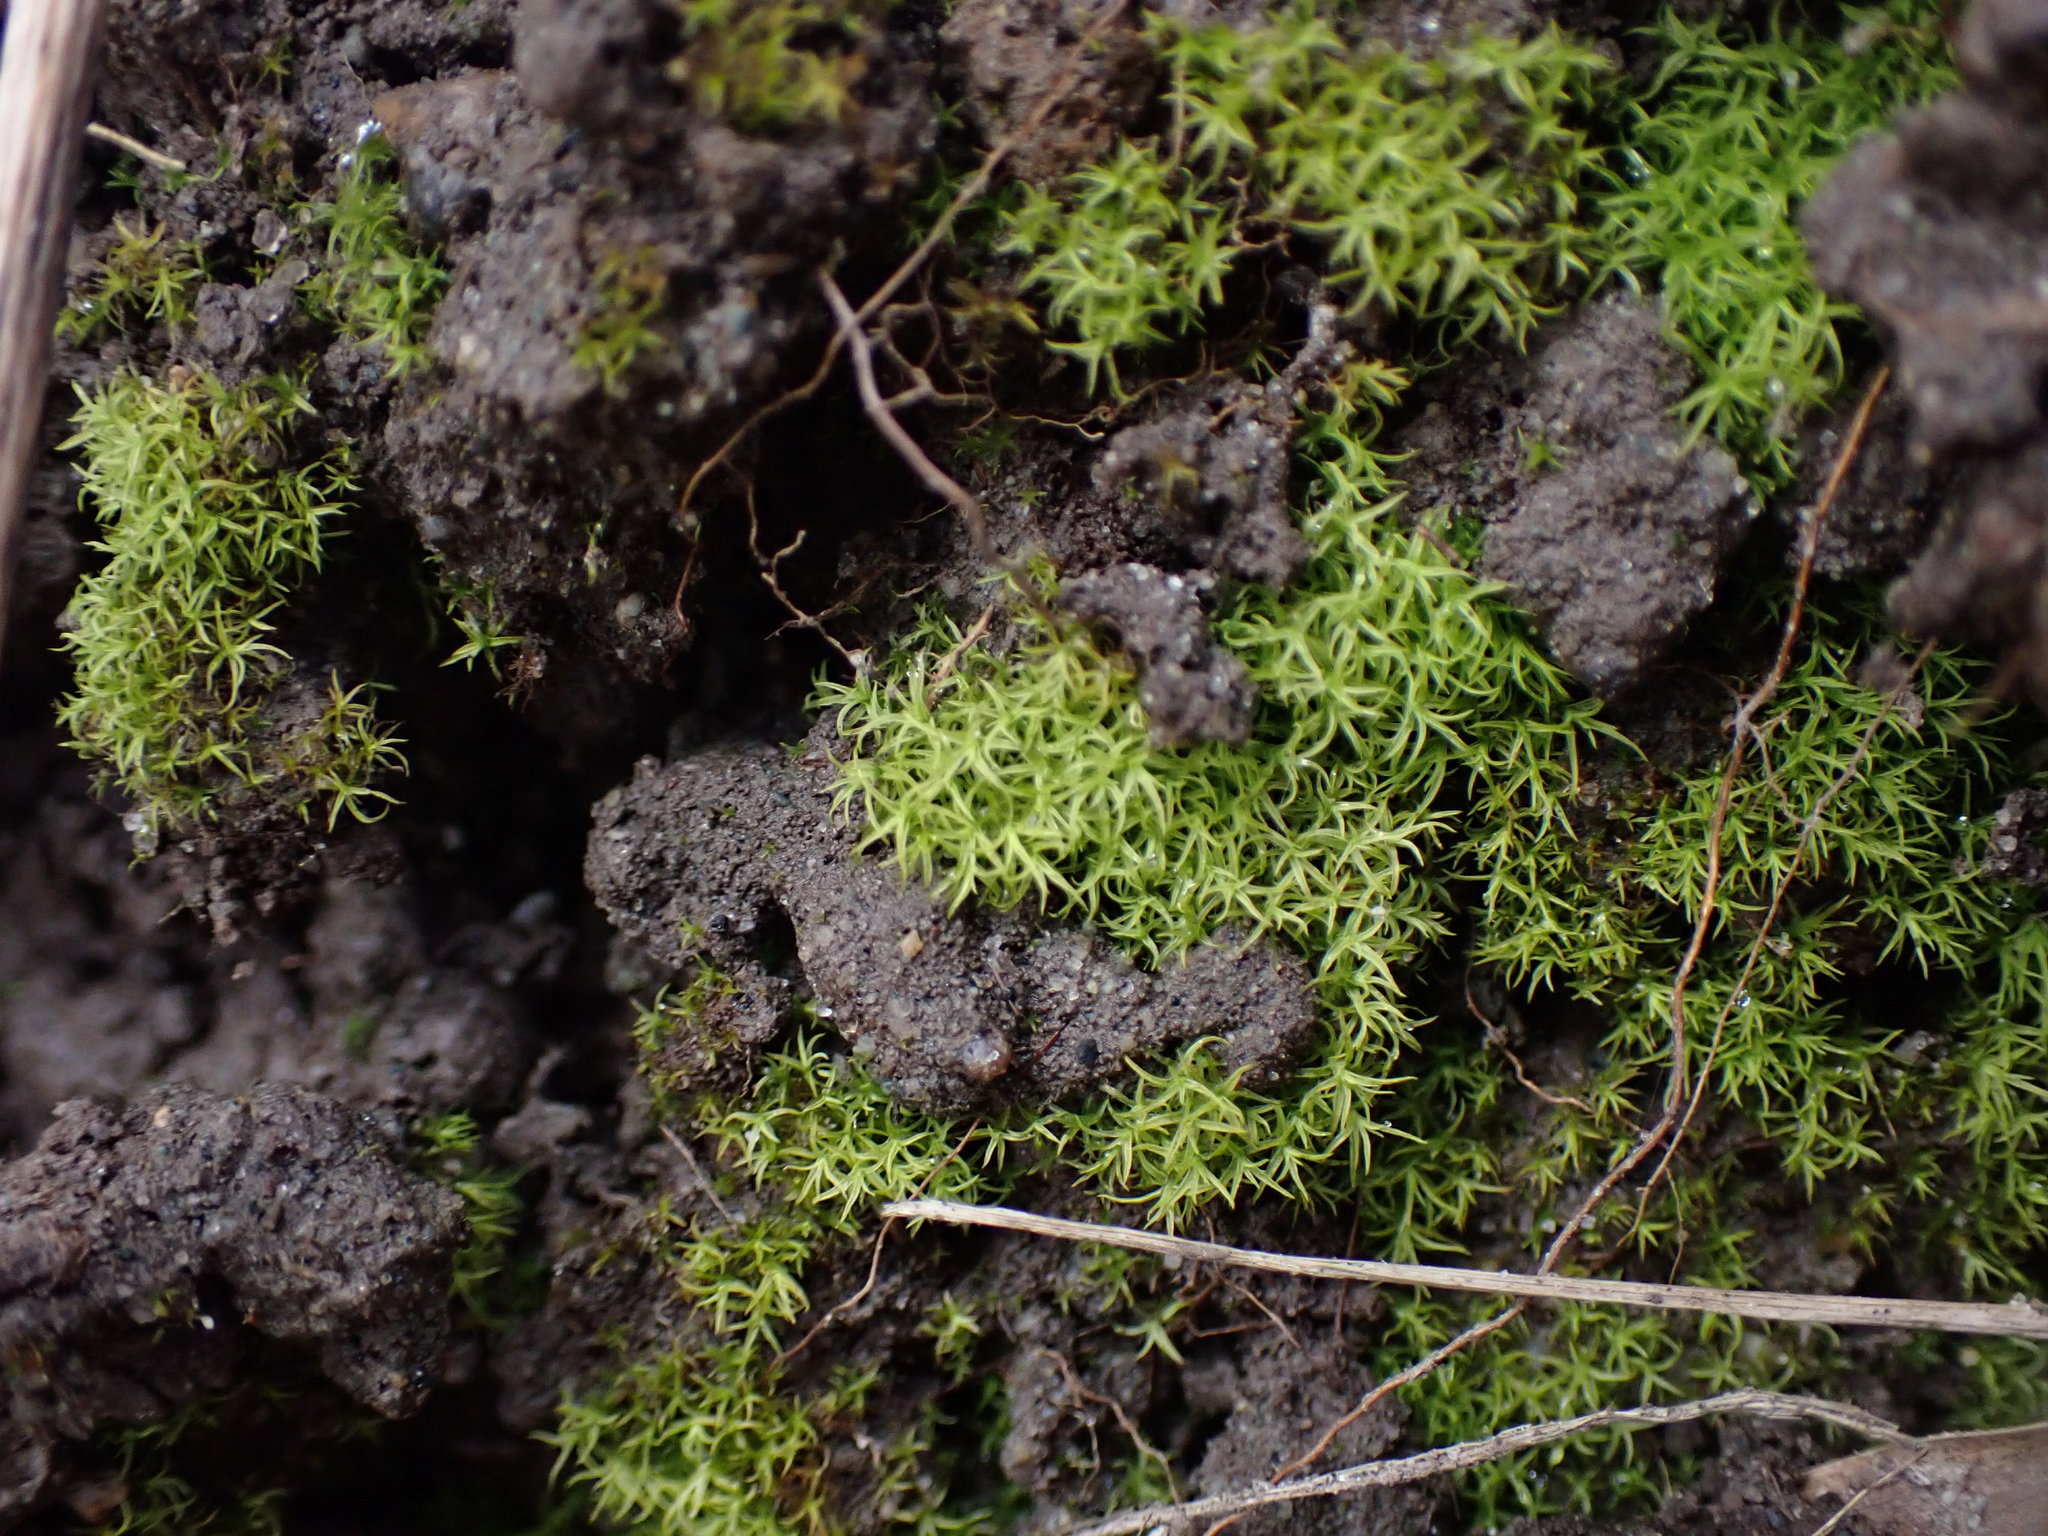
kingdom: Plantae
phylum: Bryophyta
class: Bryopsida
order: Pottiales
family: Pottiaceae
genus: Weissia
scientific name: Weissia controversa
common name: Green-tufted stubble moss
